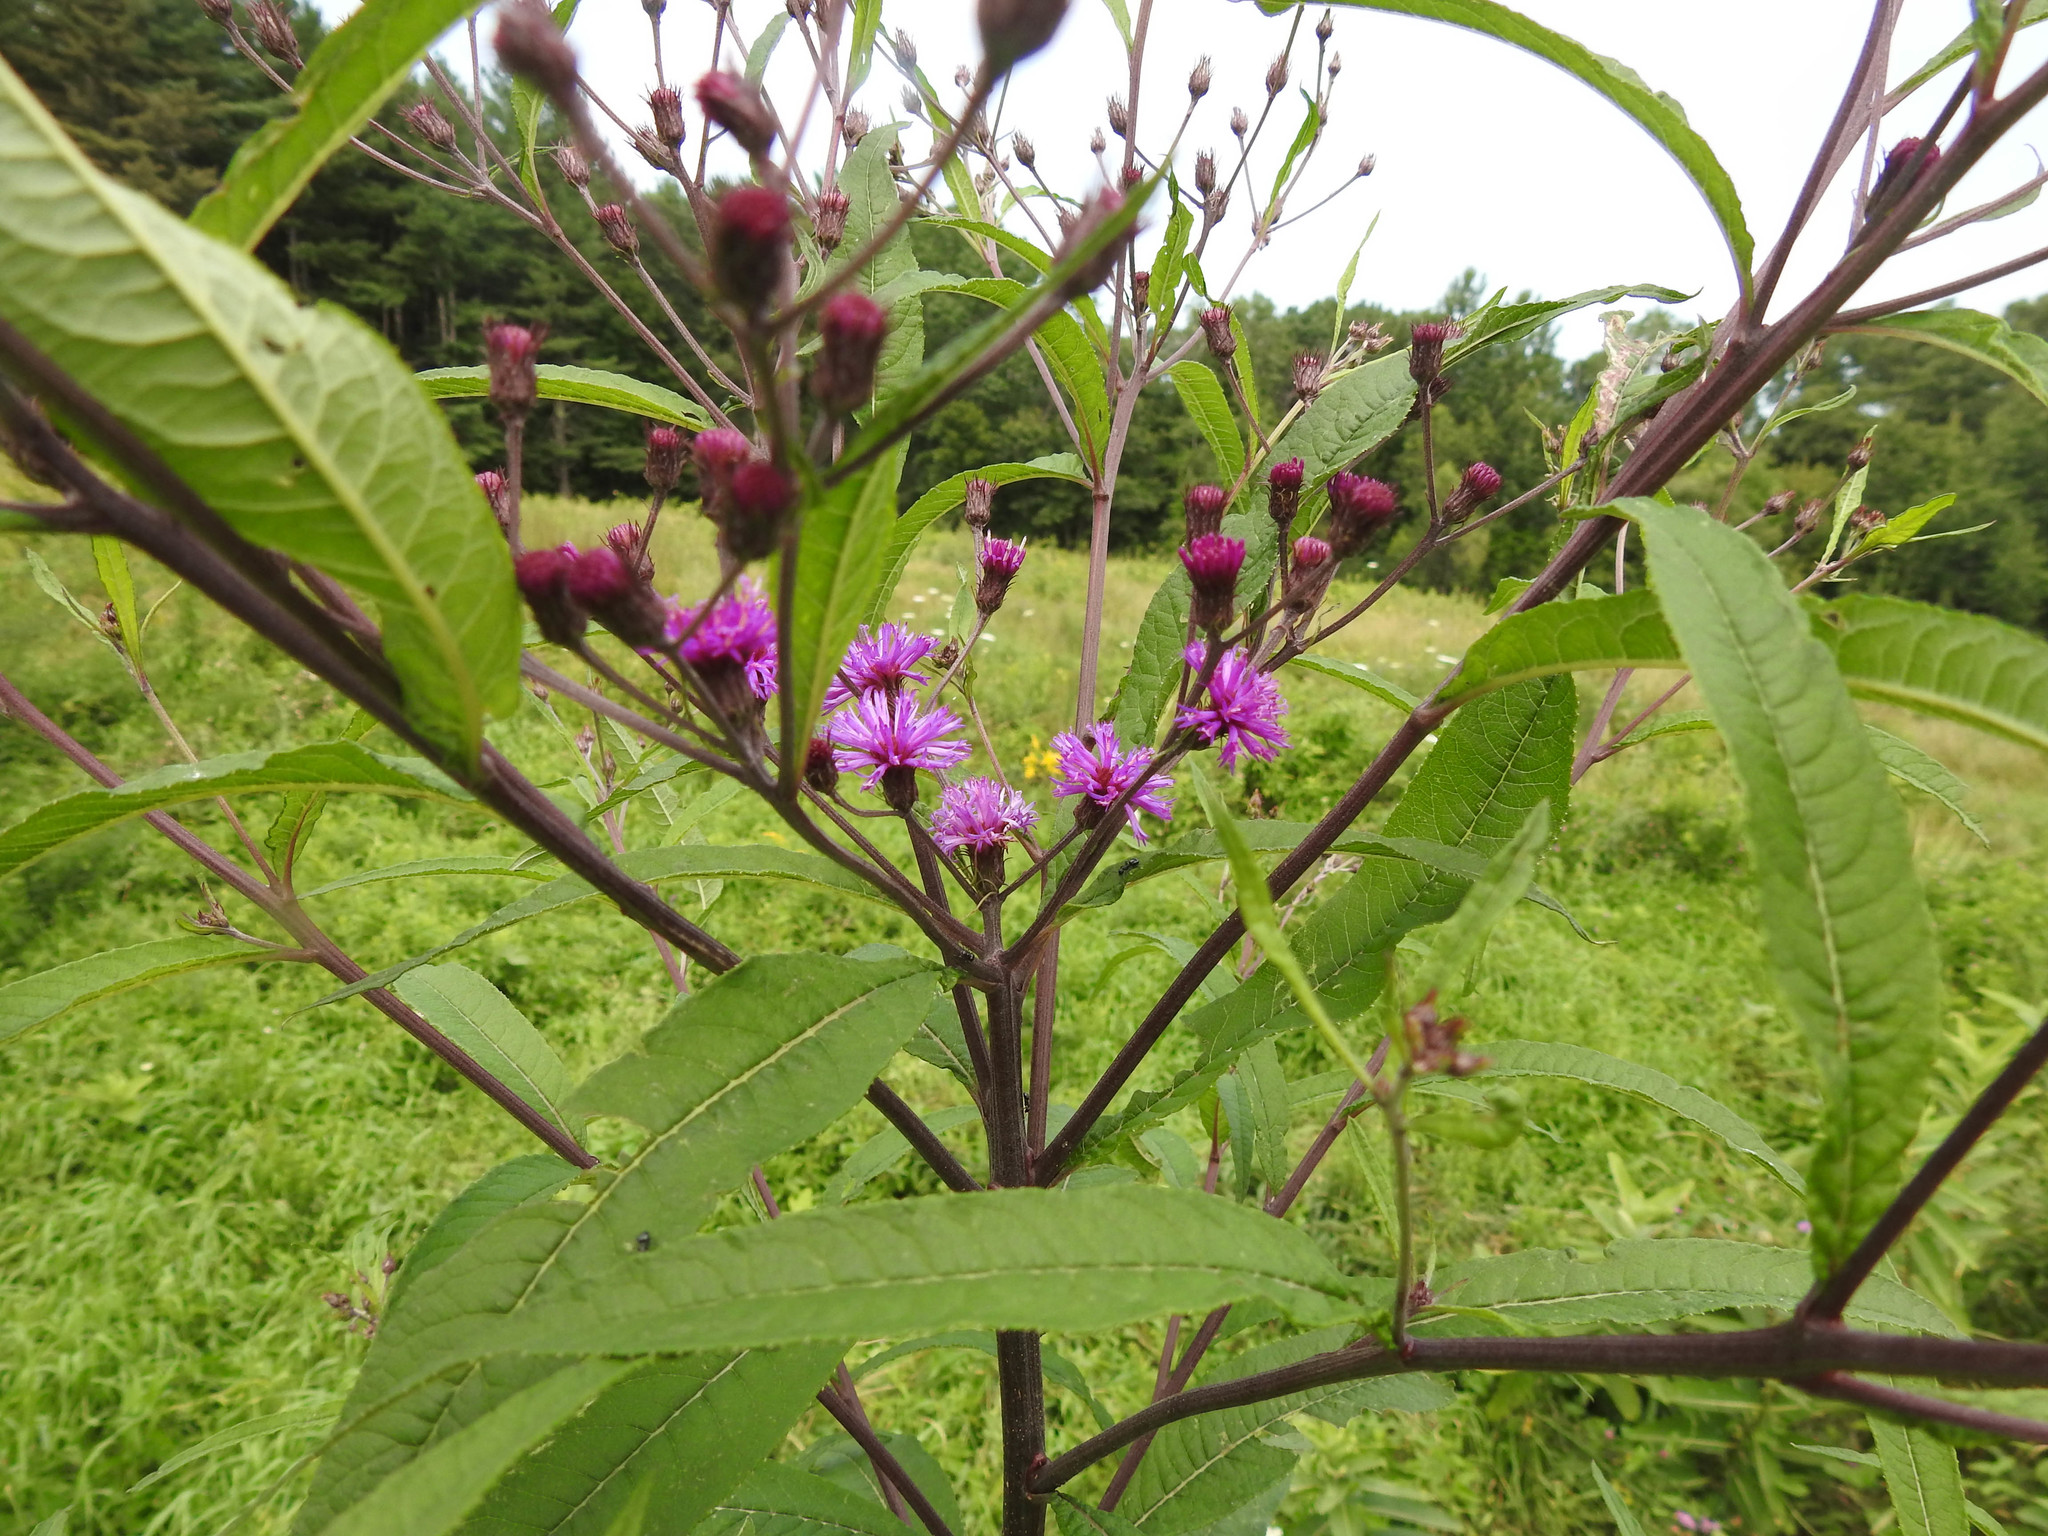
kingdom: Plantae
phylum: Tracheophyta
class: Magnoliopsida
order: Asterales
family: Asteraceae
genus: Vernonia
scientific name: Vernonia noveboracensis
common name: New york ironweed
